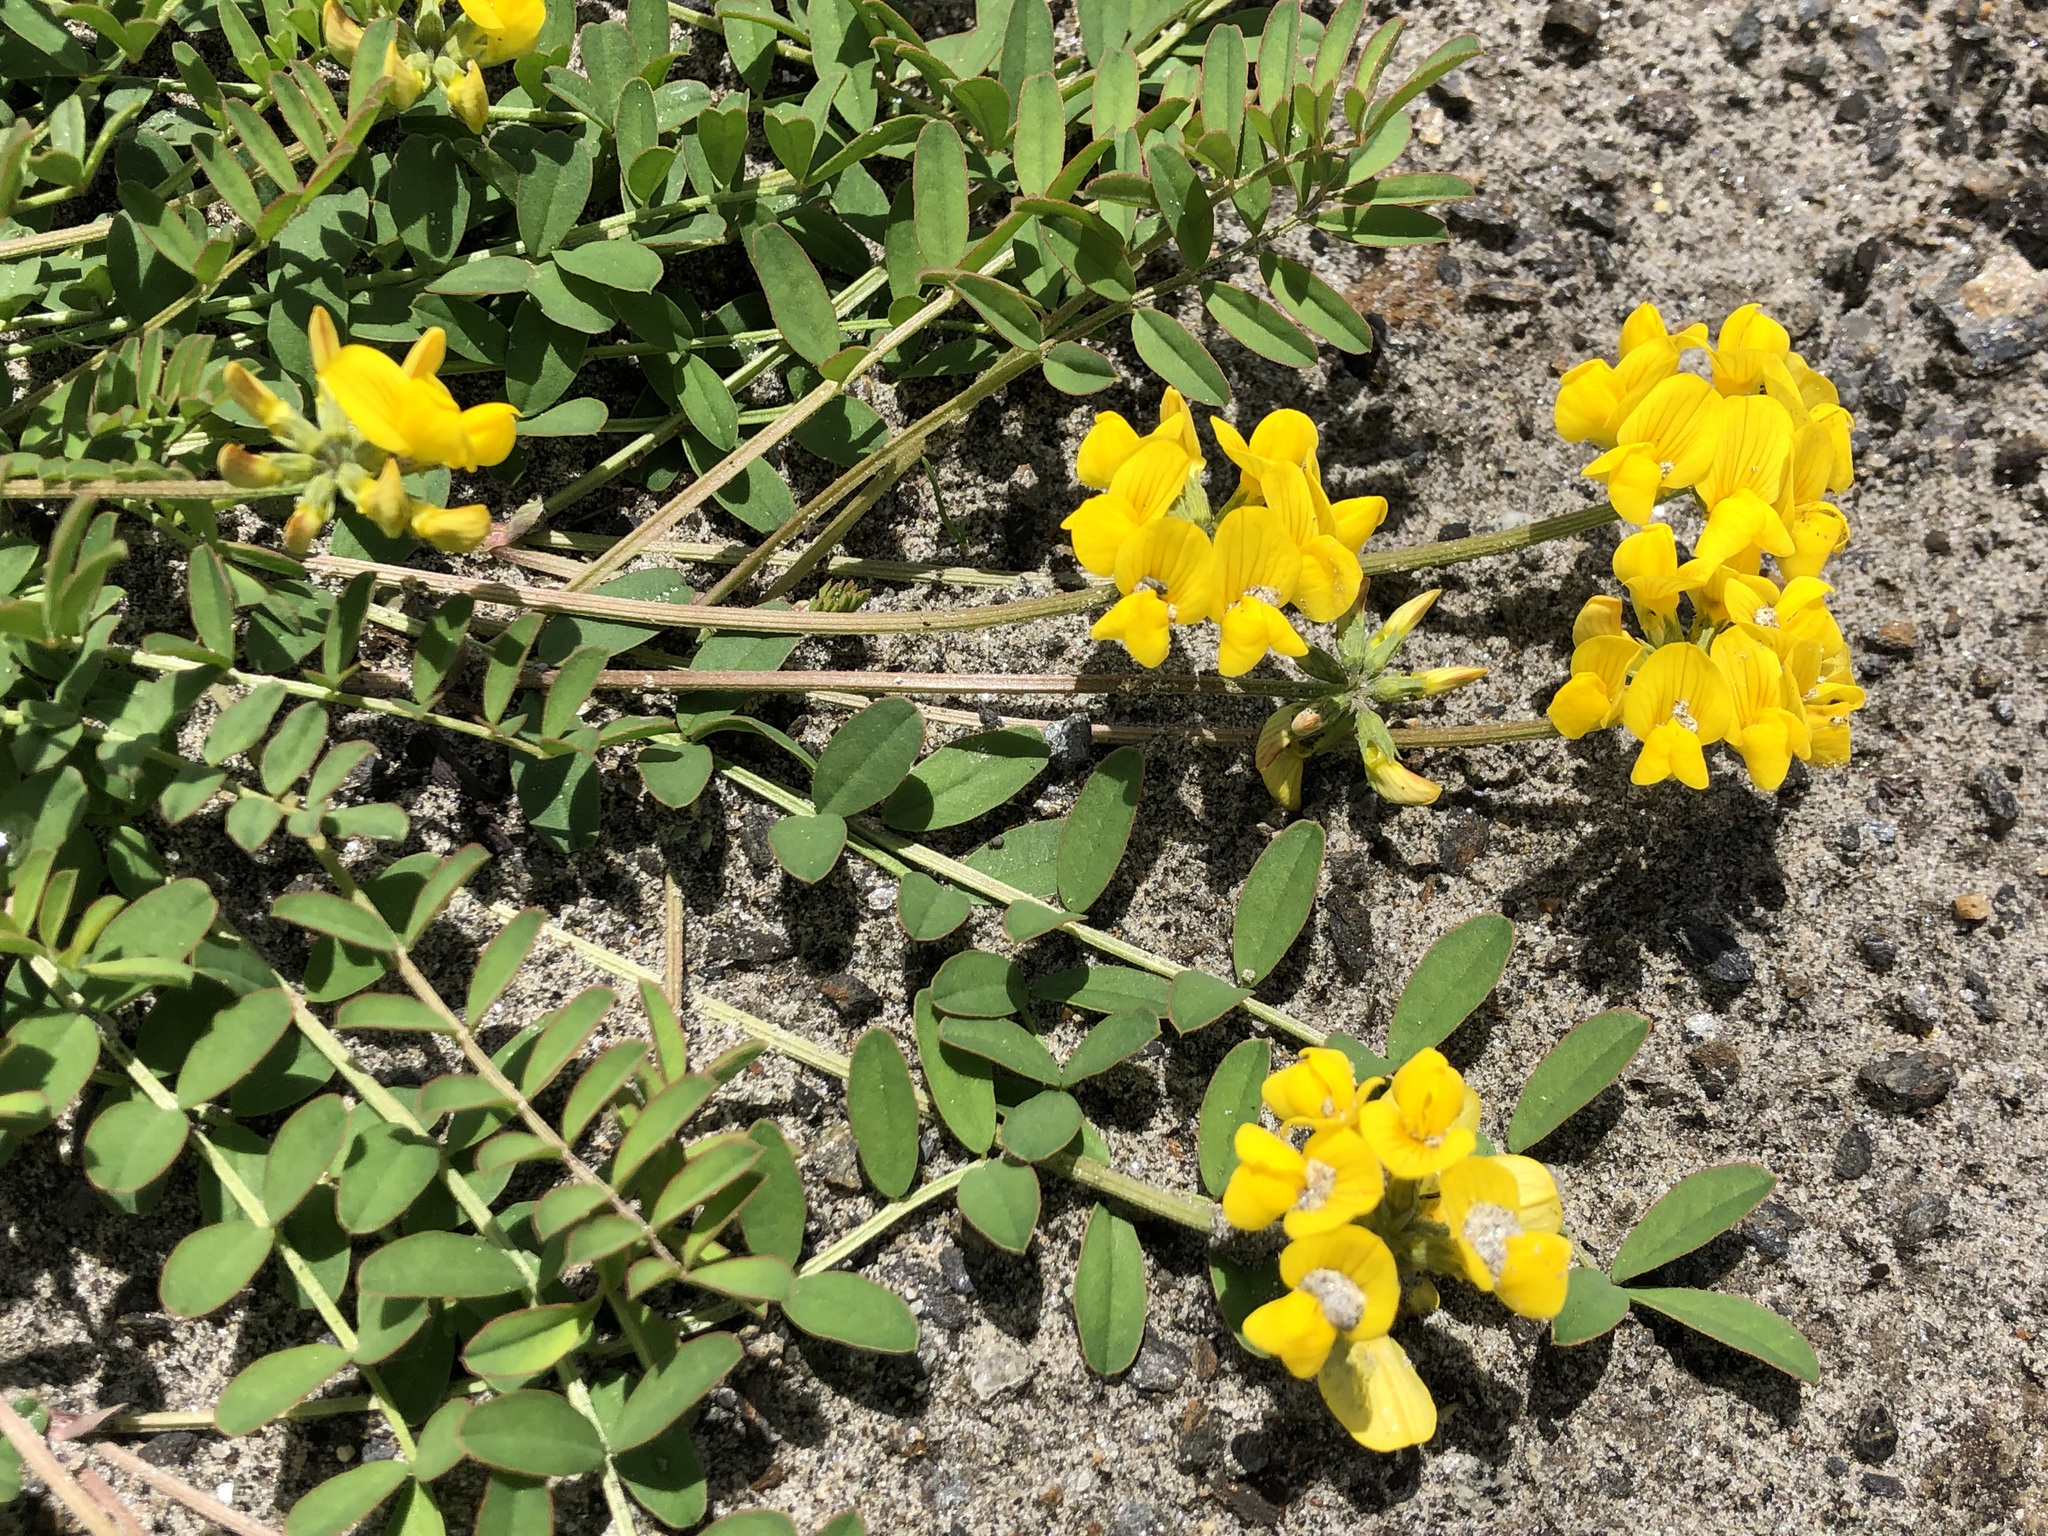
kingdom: Plantae
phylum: Tracheophyta
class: Magnoliopsida
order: Fabales
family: Fabaceae
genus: Hippocrepis
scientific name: Hippocrepis comosa
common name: Horseshoe vetch
